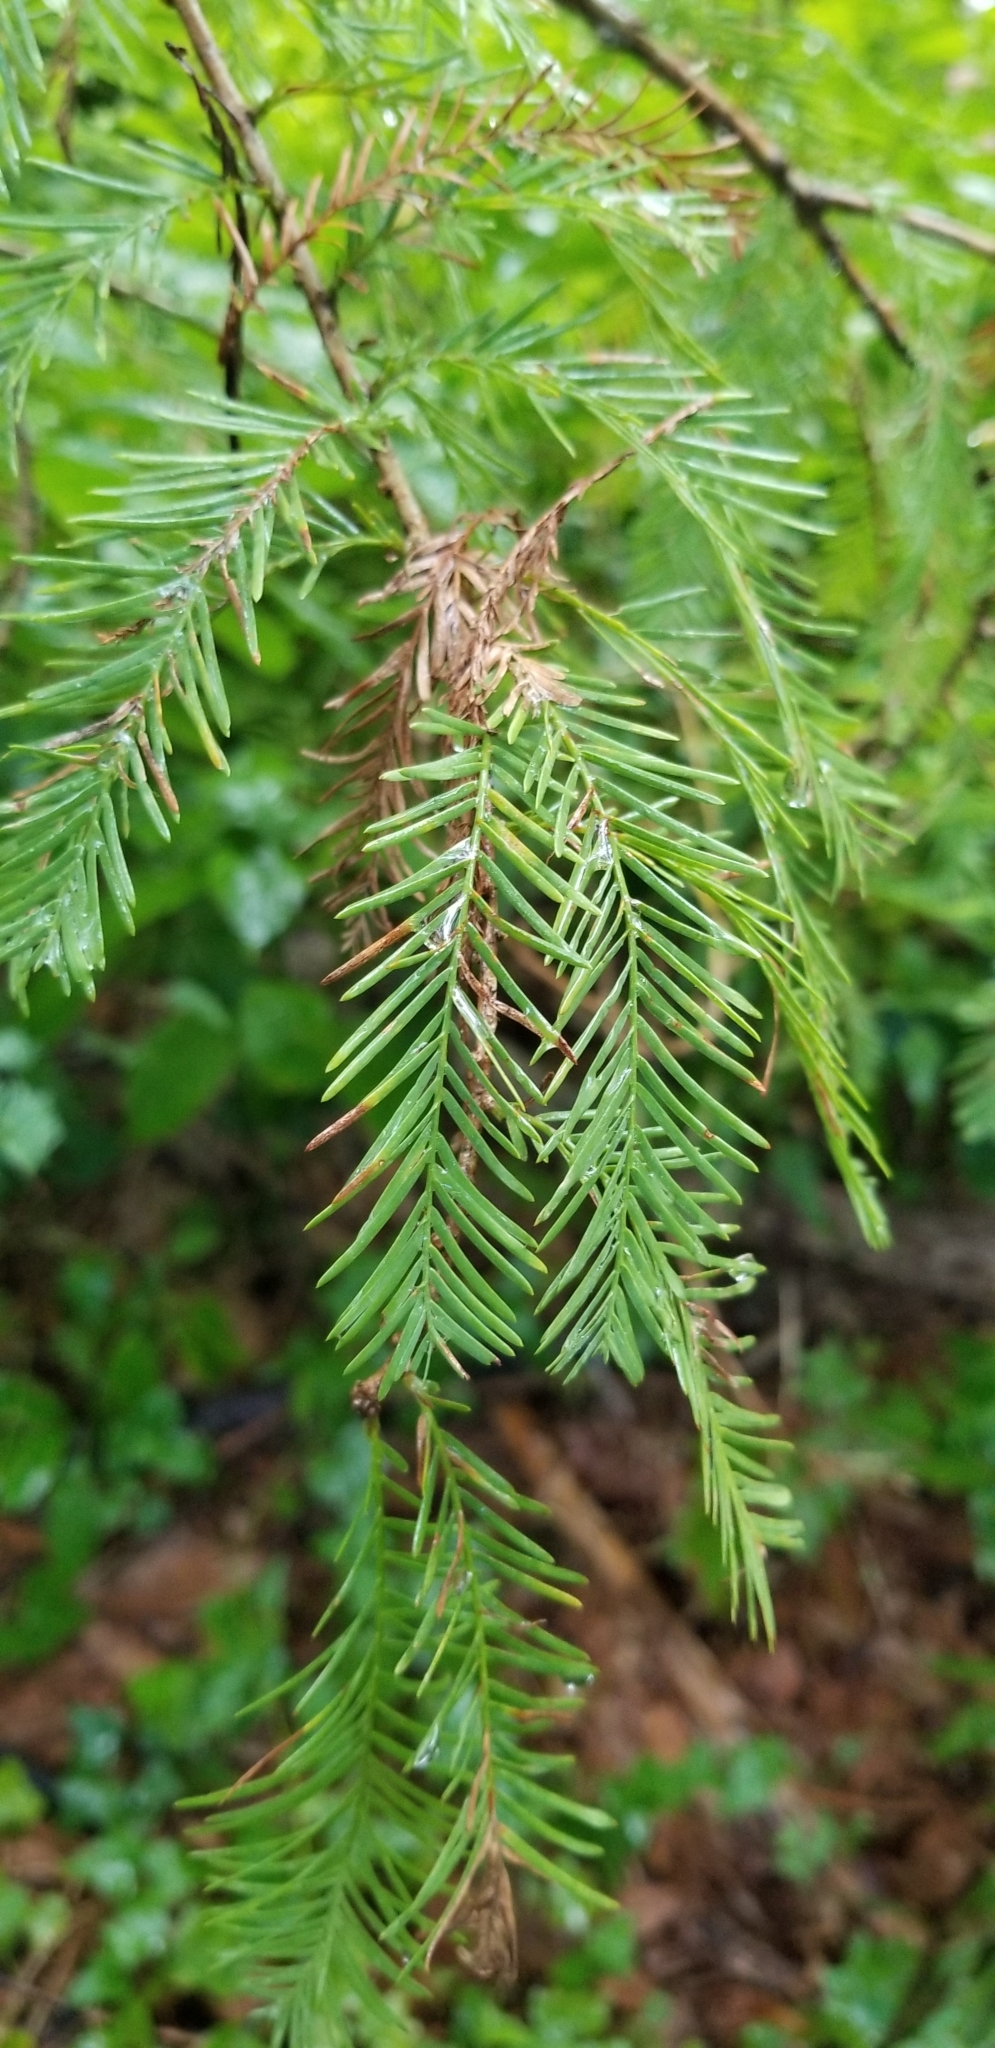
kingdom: Plantae
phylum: Tracheophyta
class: Pinopsida
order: Pinales
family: Cupressaceae
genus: Taxodium
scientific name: Taxodium distichum
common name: Bald cypress
